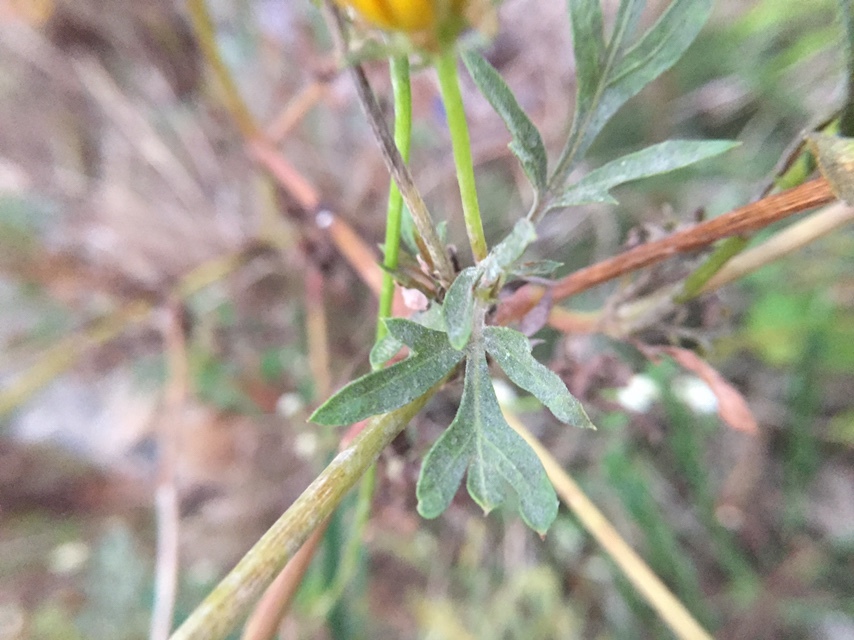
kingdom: Plantae
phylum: Tracheophyta
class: Magnoliopsida
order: Asterales
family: Asteraceae
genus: Cosmos
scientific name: Cosmos sulphureus
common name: Sulphur cosmos
